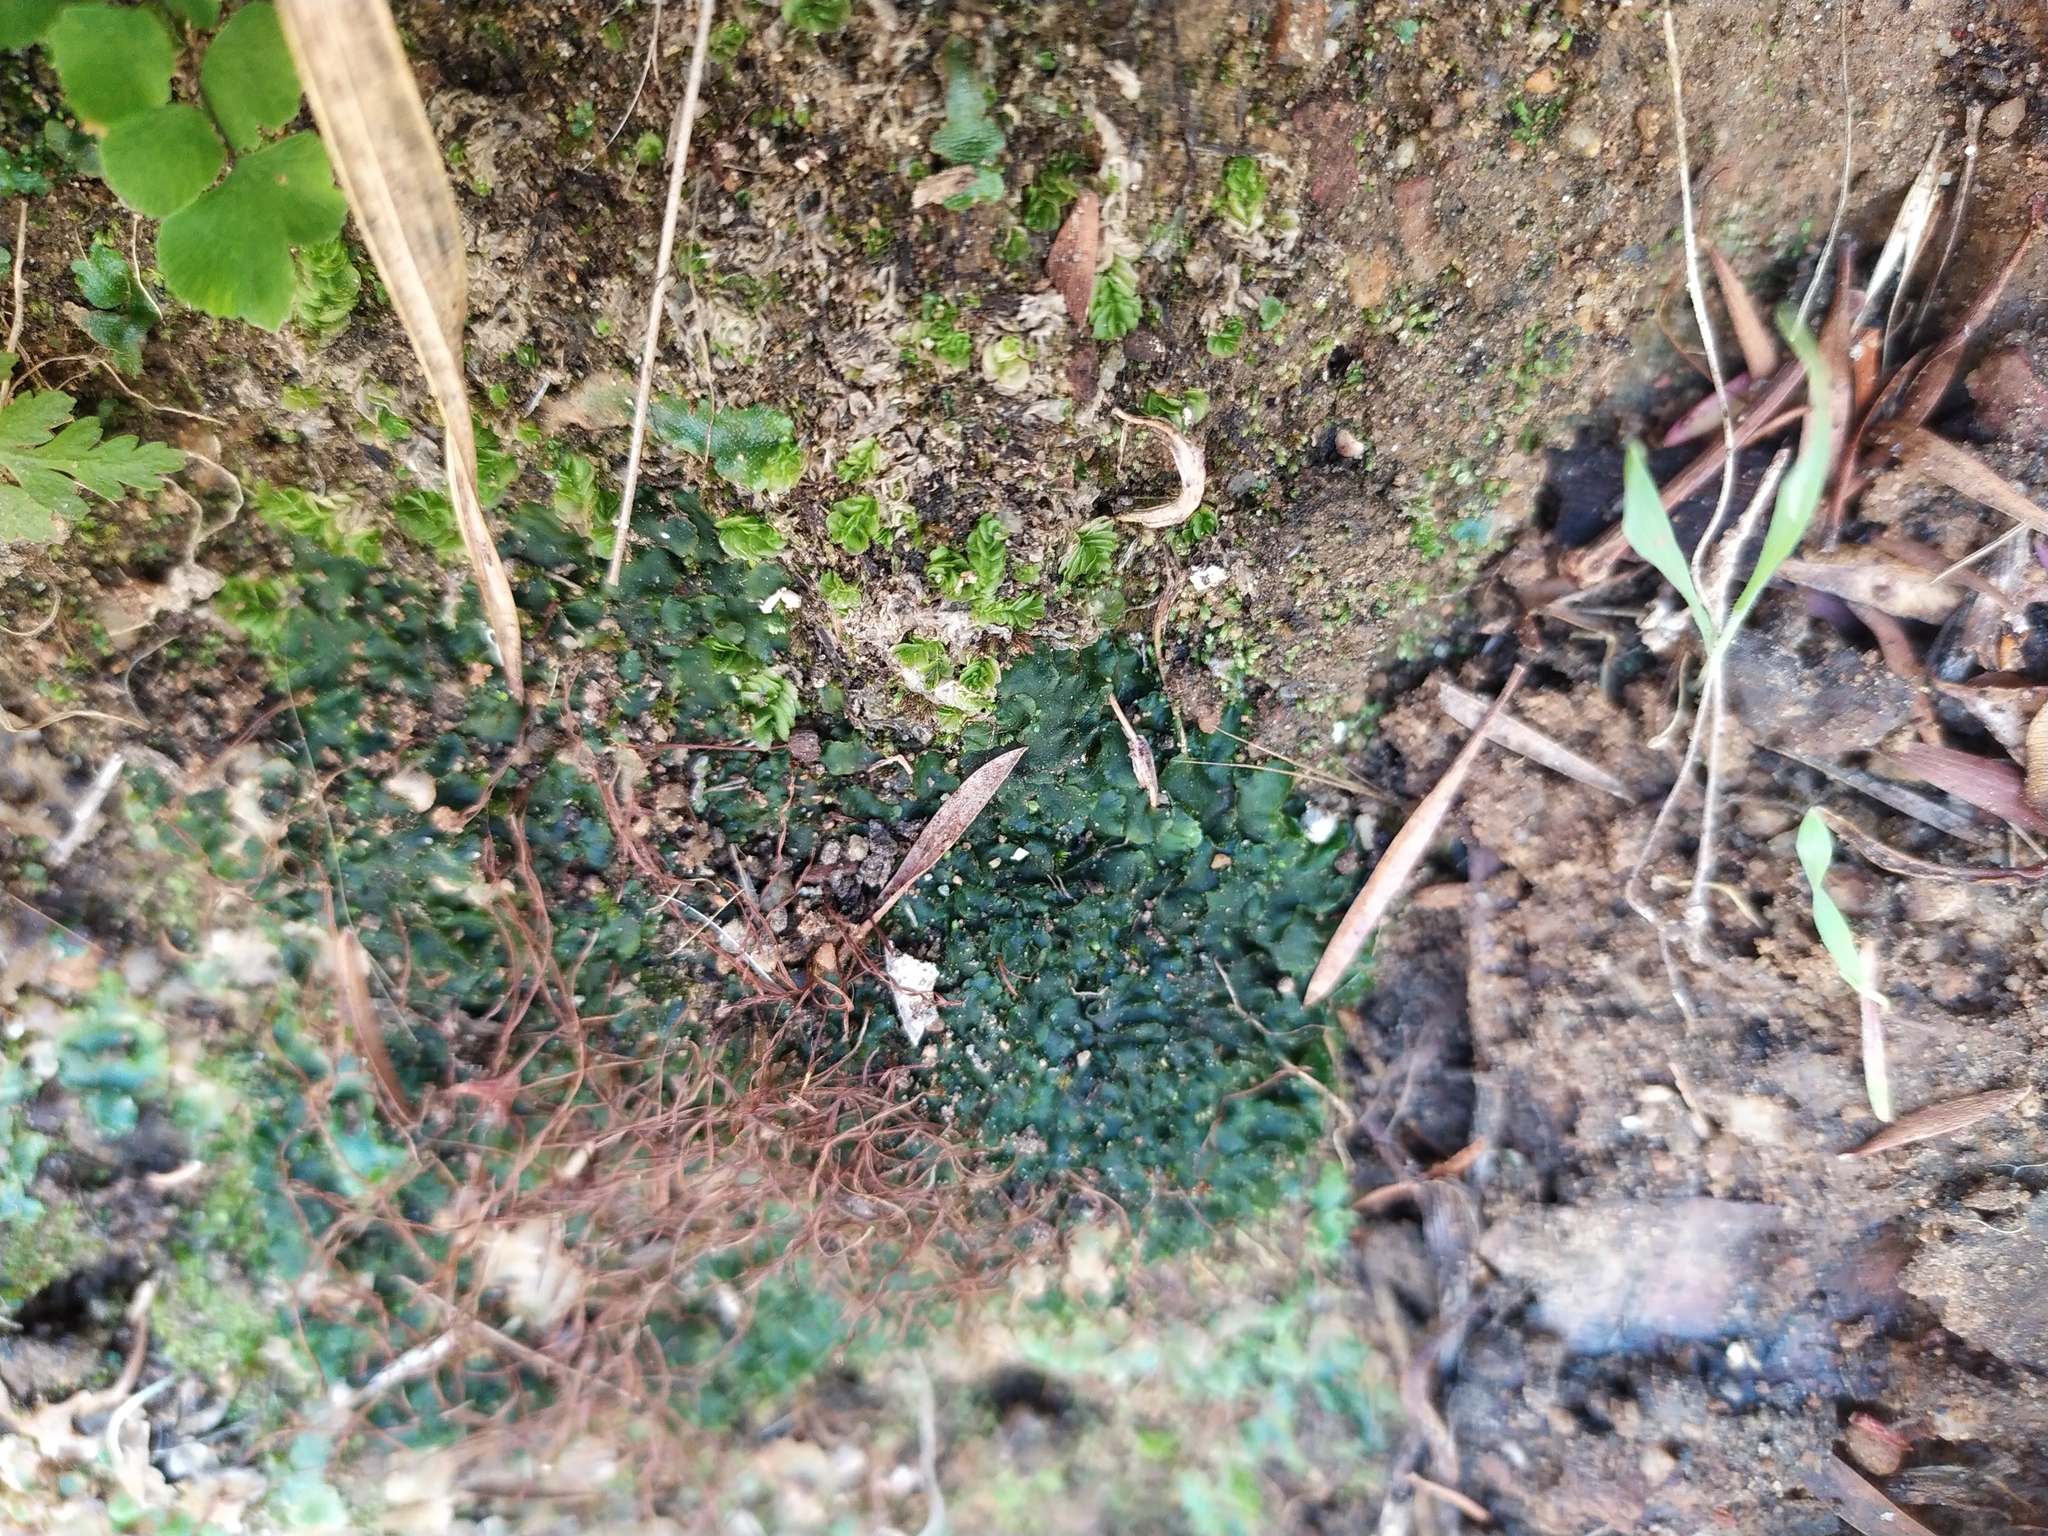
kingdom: Plantae
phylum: Marchantiophyta
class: Jungermanniopsida
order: Jungermanniales
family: Acrobolbaceae
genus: Lethocolea
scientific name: Lethocolea pansa
